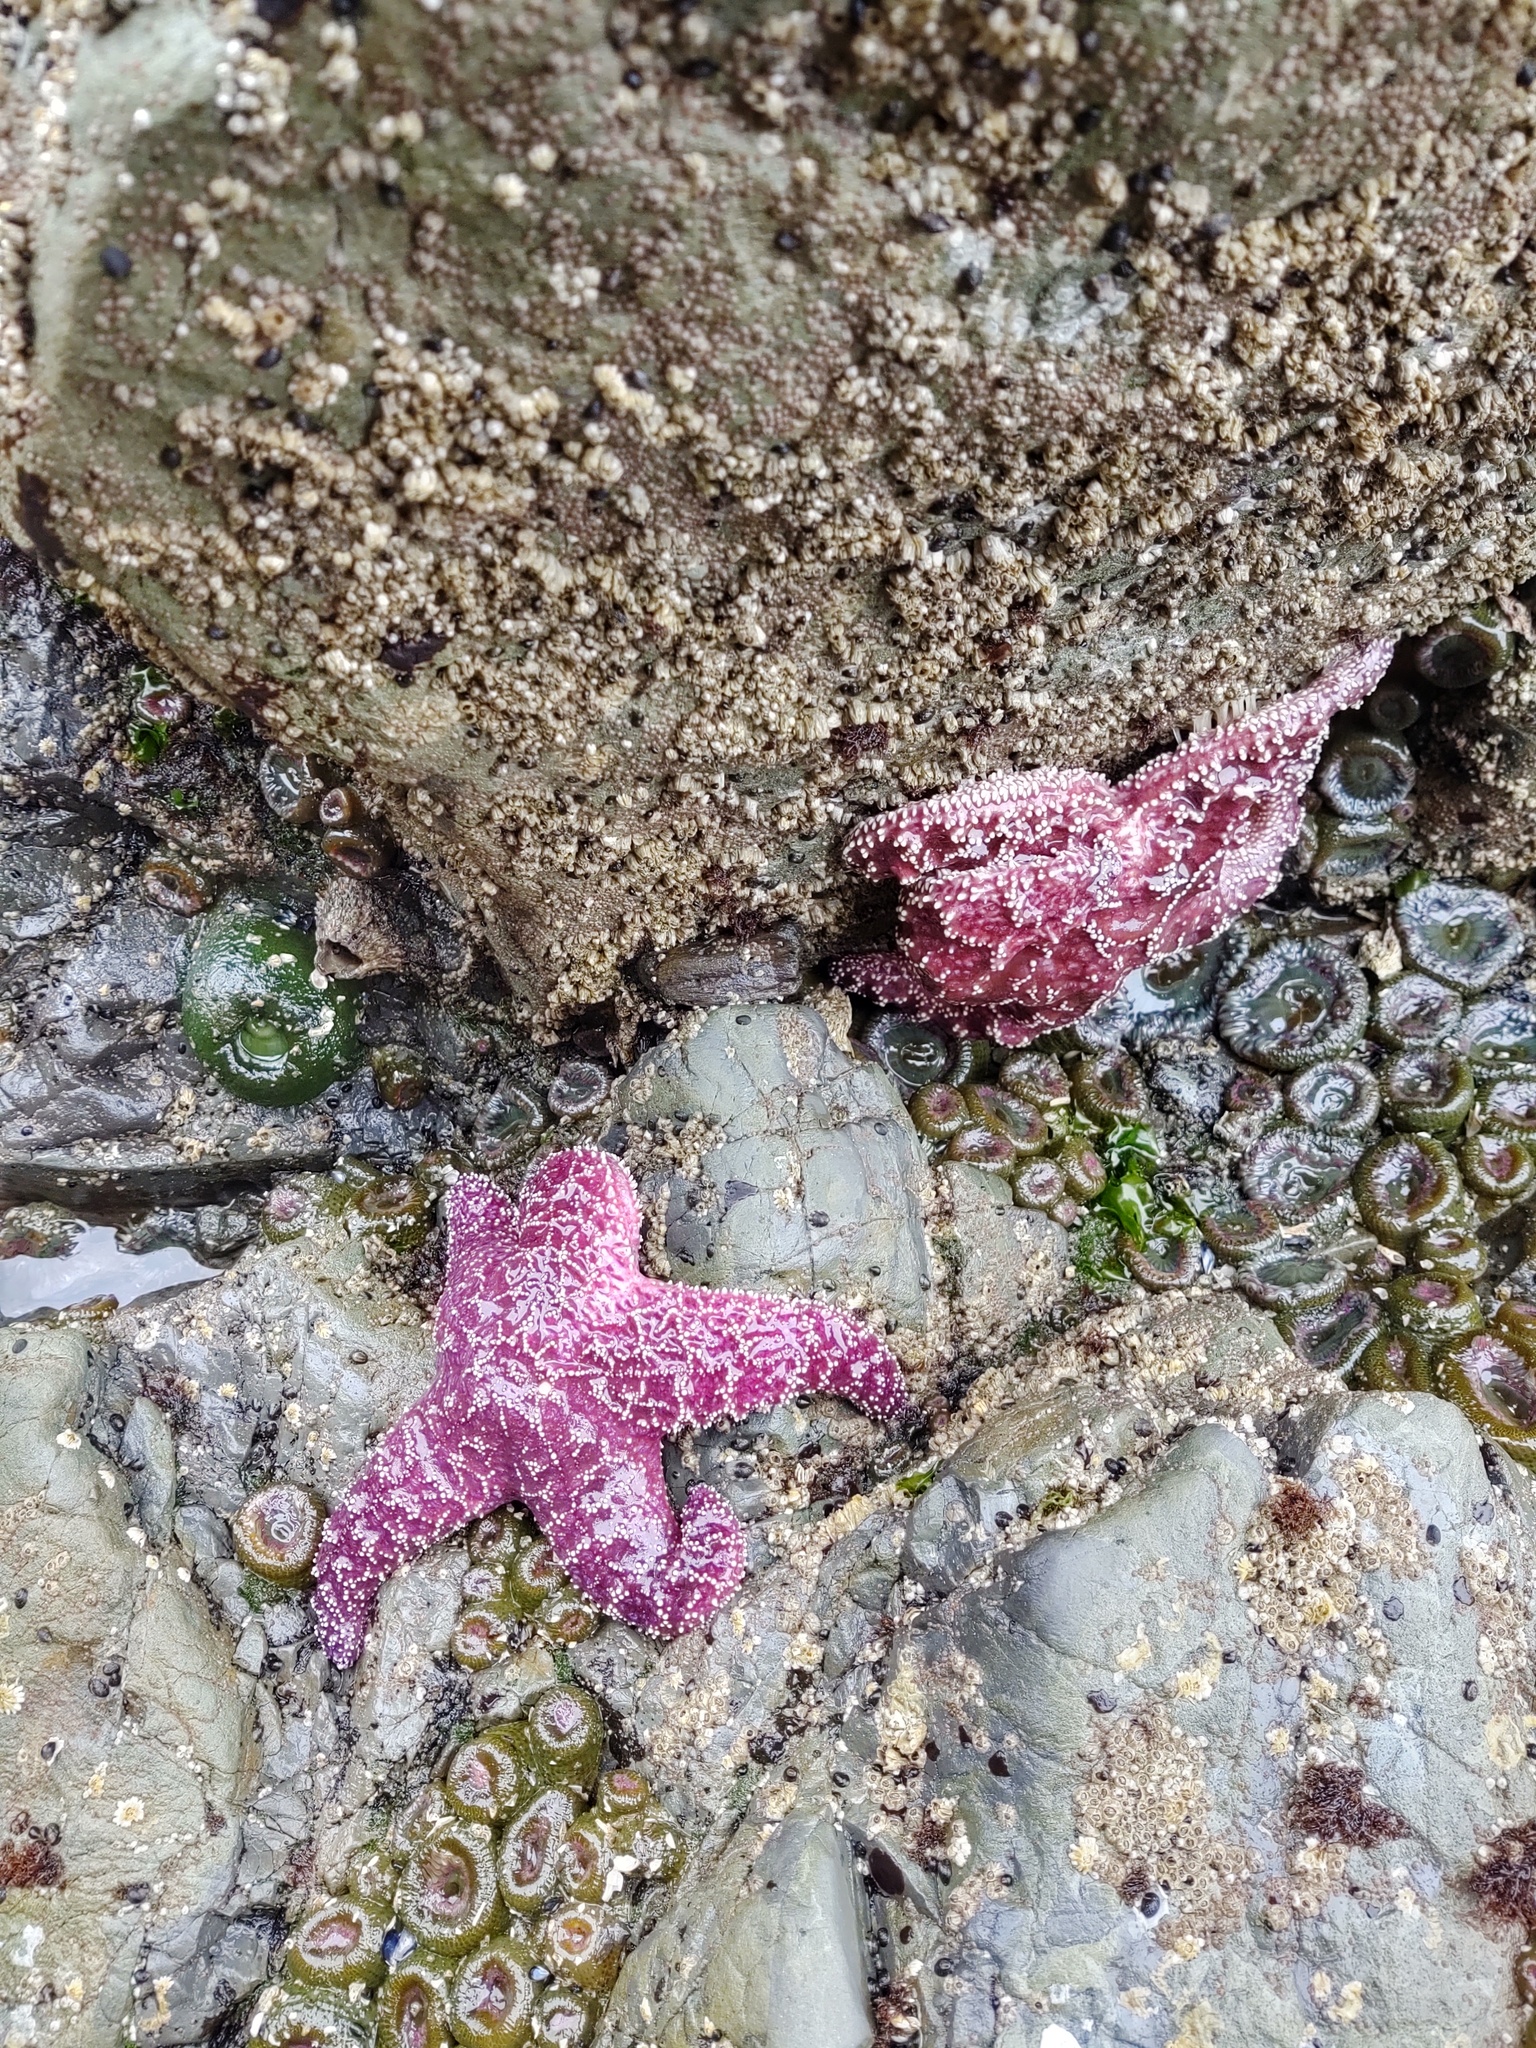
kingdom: Animalia
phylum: Echinodermata
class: Asteroidea
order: Forcipulatida
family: Asteriidae
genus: Pisaster
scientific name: Pisaster ochraceus
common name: Ochre stars
